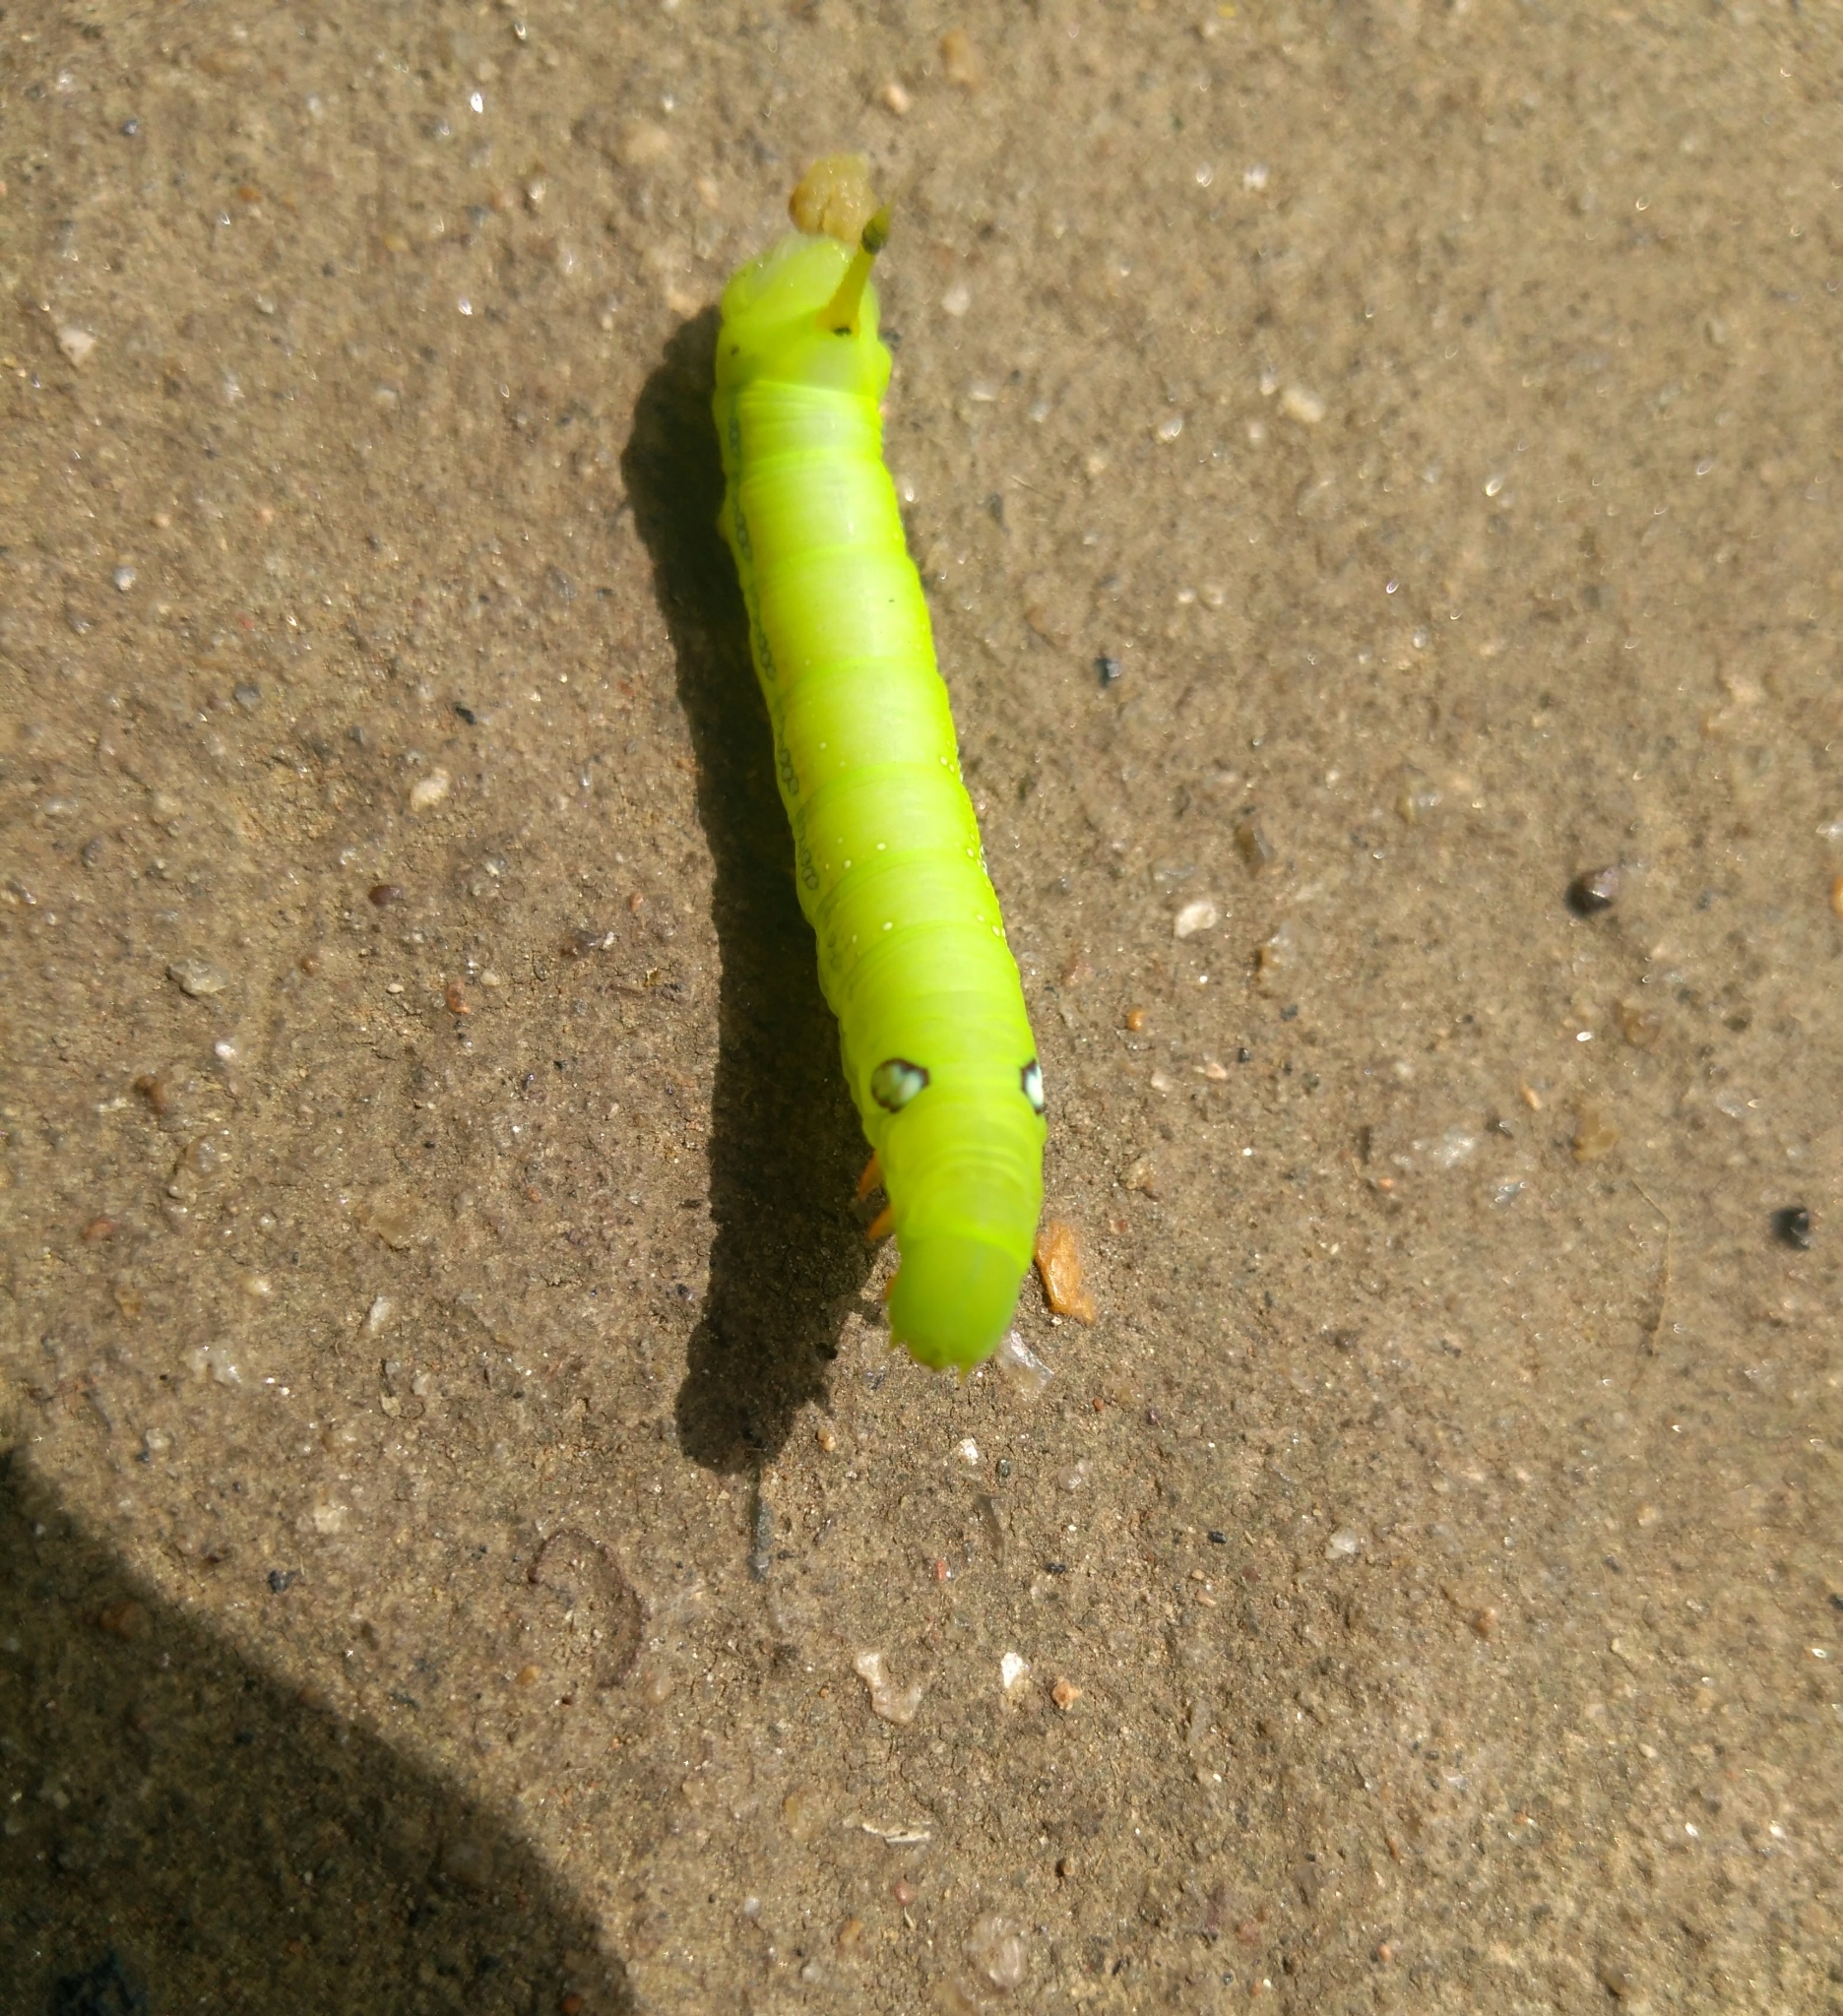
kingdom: Animalia
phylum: Arthropoda
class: Insecta
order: Lepidoptera
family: Sphingidae
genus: Daphnis
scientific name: Daphnis nerii
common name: Oleander hawk-moth
